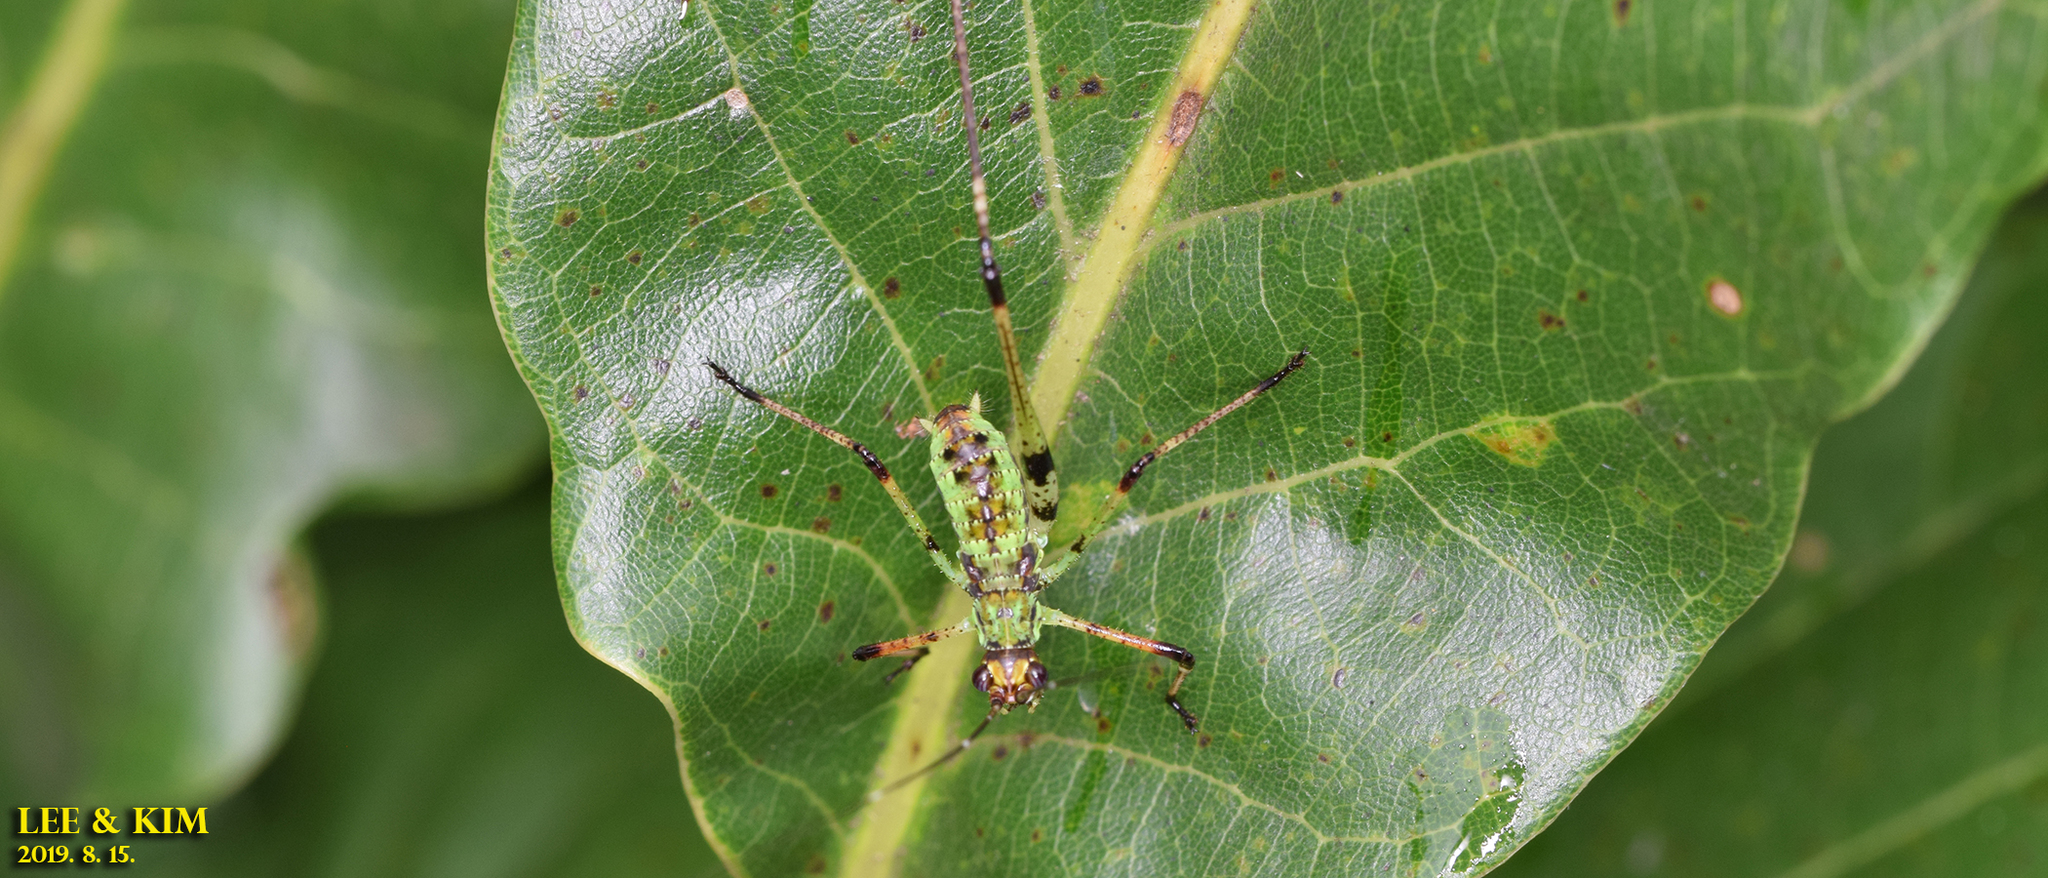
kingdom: Animalia
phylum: Arthropoda
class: Insecta
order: Orthoptera
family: Tettigoniidae
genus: Phaneroptera
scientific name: Phaneroptera nigroantennata
